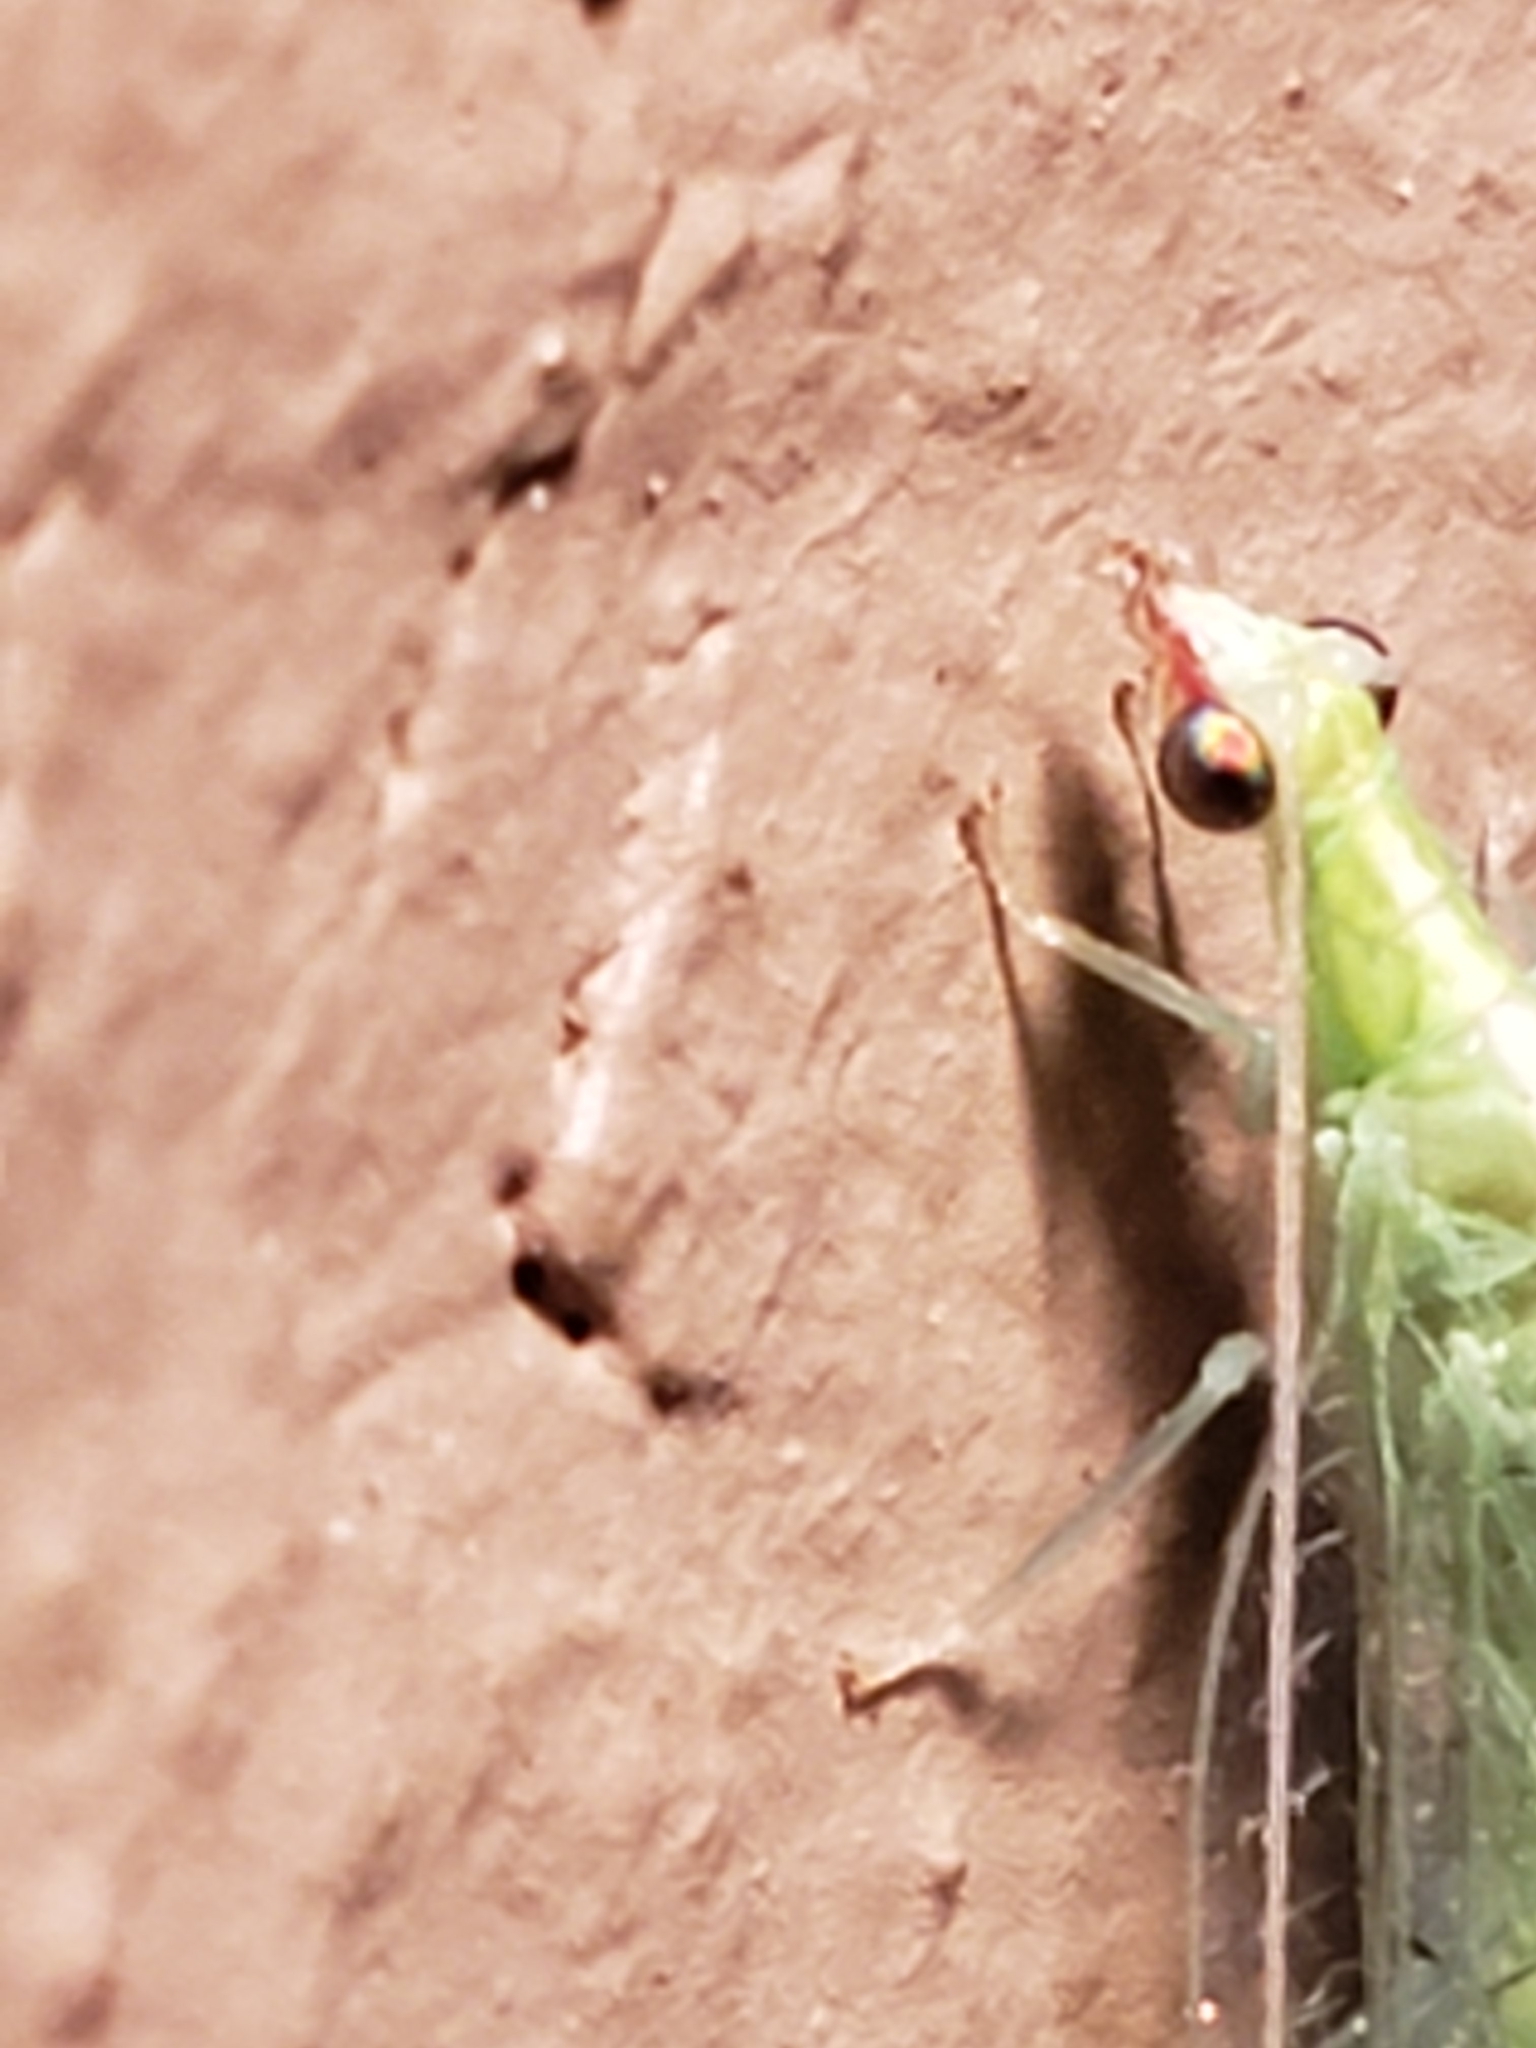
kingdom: Animalia
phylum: Arthropoda
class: Insecta
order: Neuroptera
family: Chrysopidae
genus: Chrysoperla
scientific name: Chrysoperla rufilabris
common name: Red-lipped green lacewing
